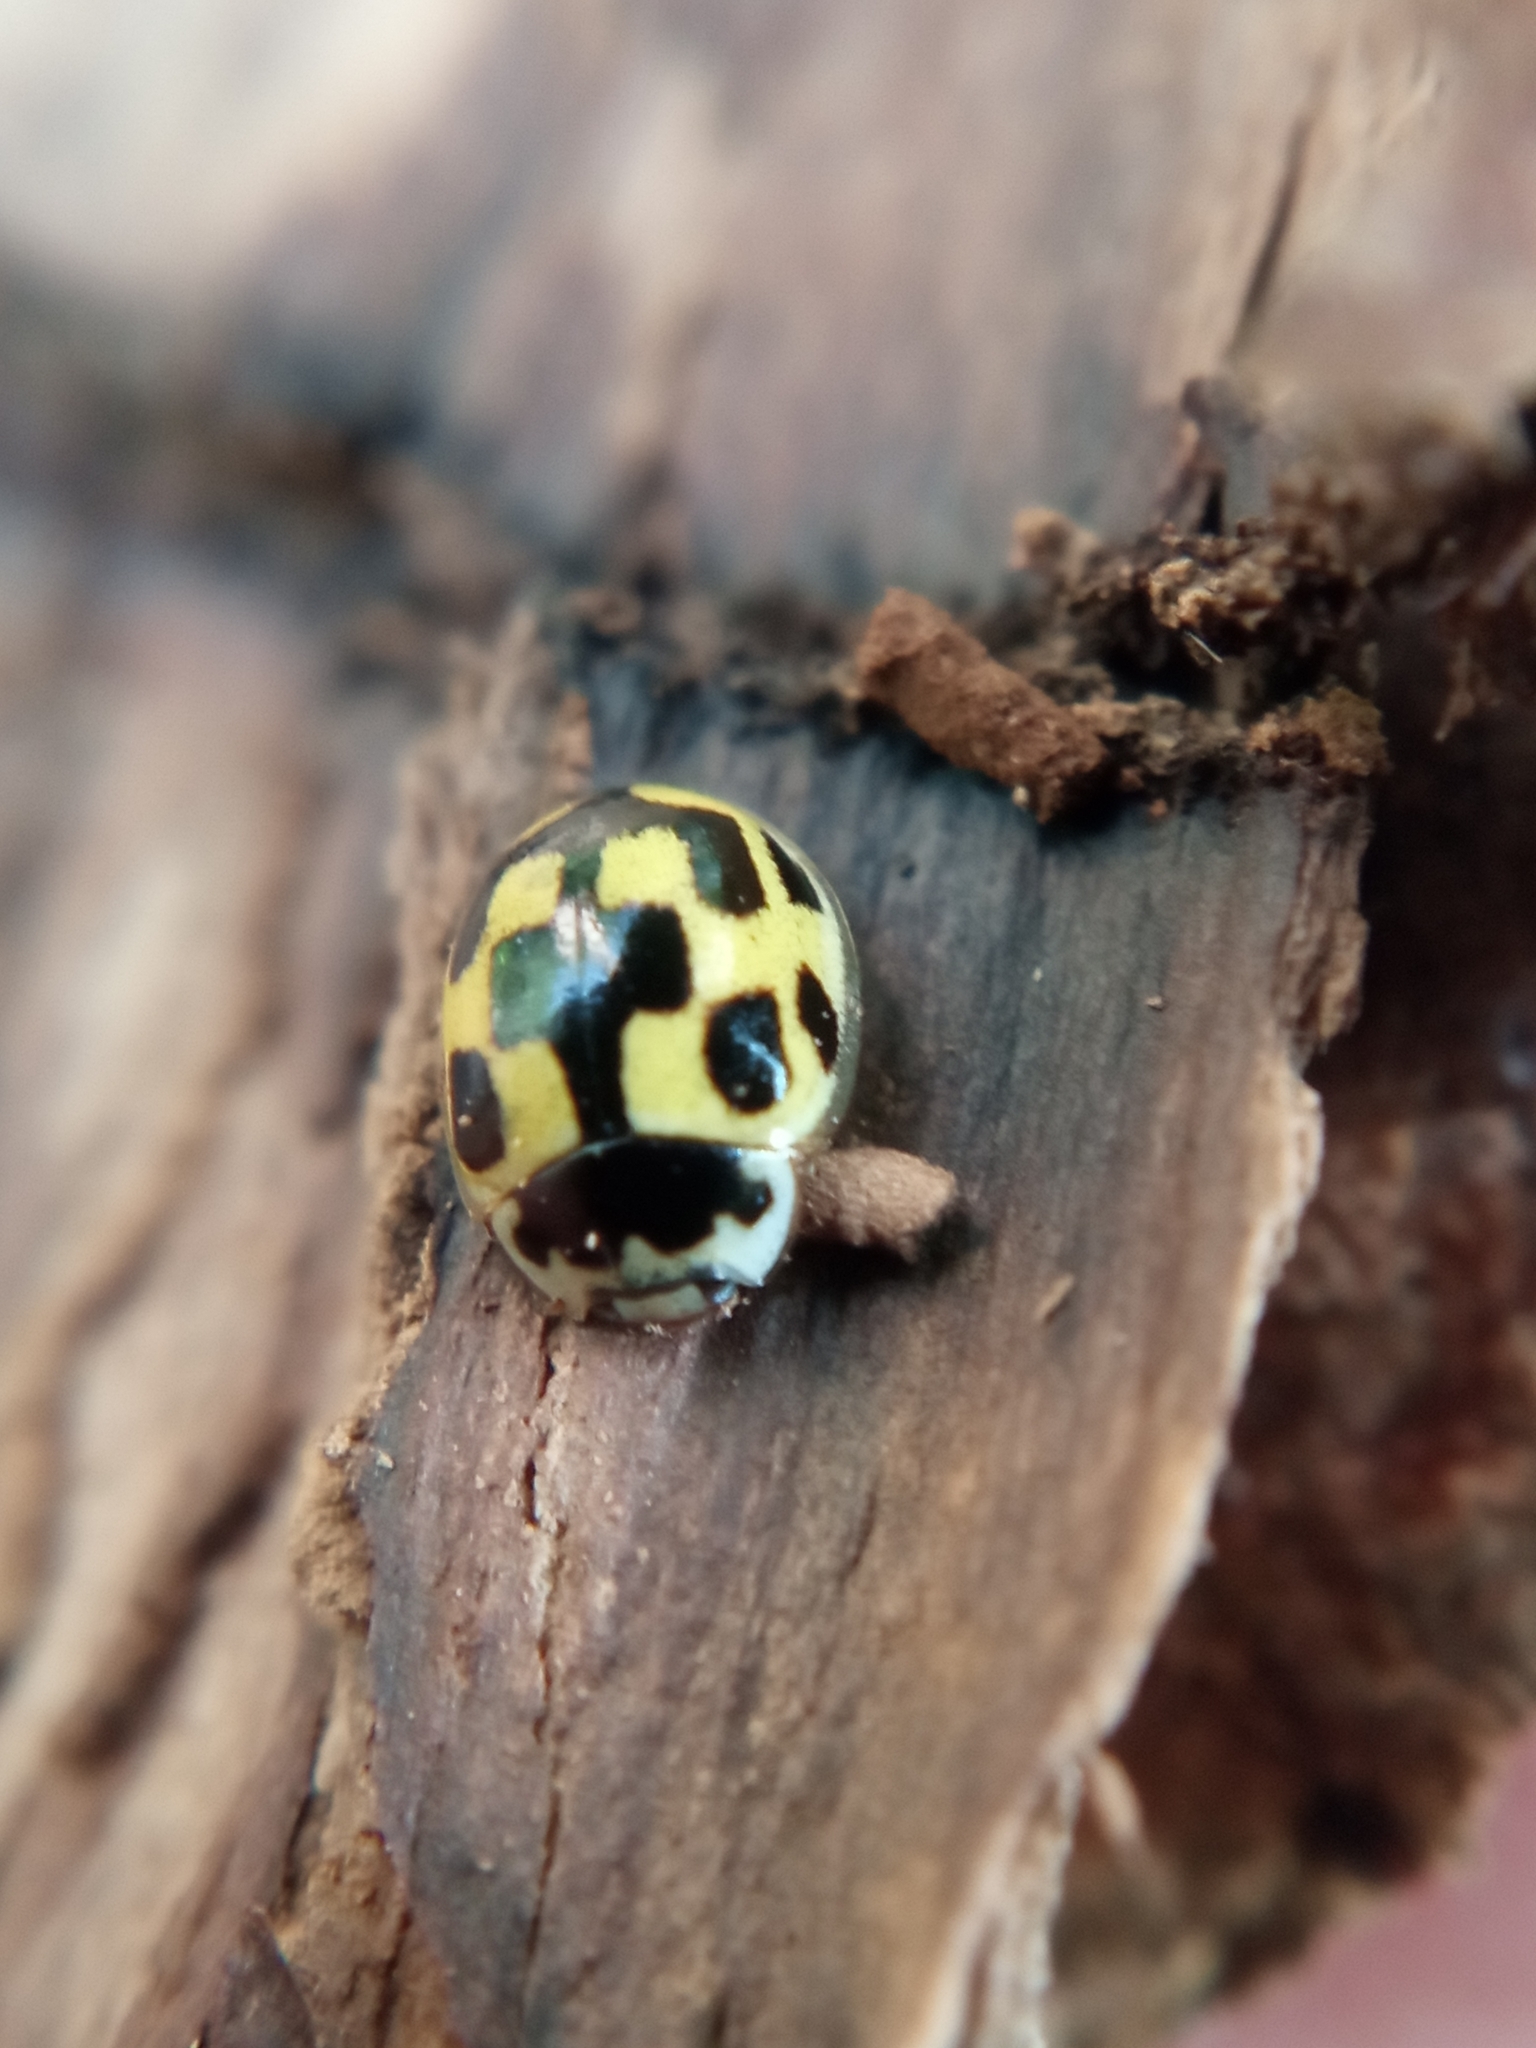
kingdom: Animalia
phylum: Arthropoda
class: Insecta
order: Coleoptera
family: Coccinellidae
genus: Propylaea
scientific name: Propylaea quatuordecimpunctata
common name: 14-spotted ladybird beetle
